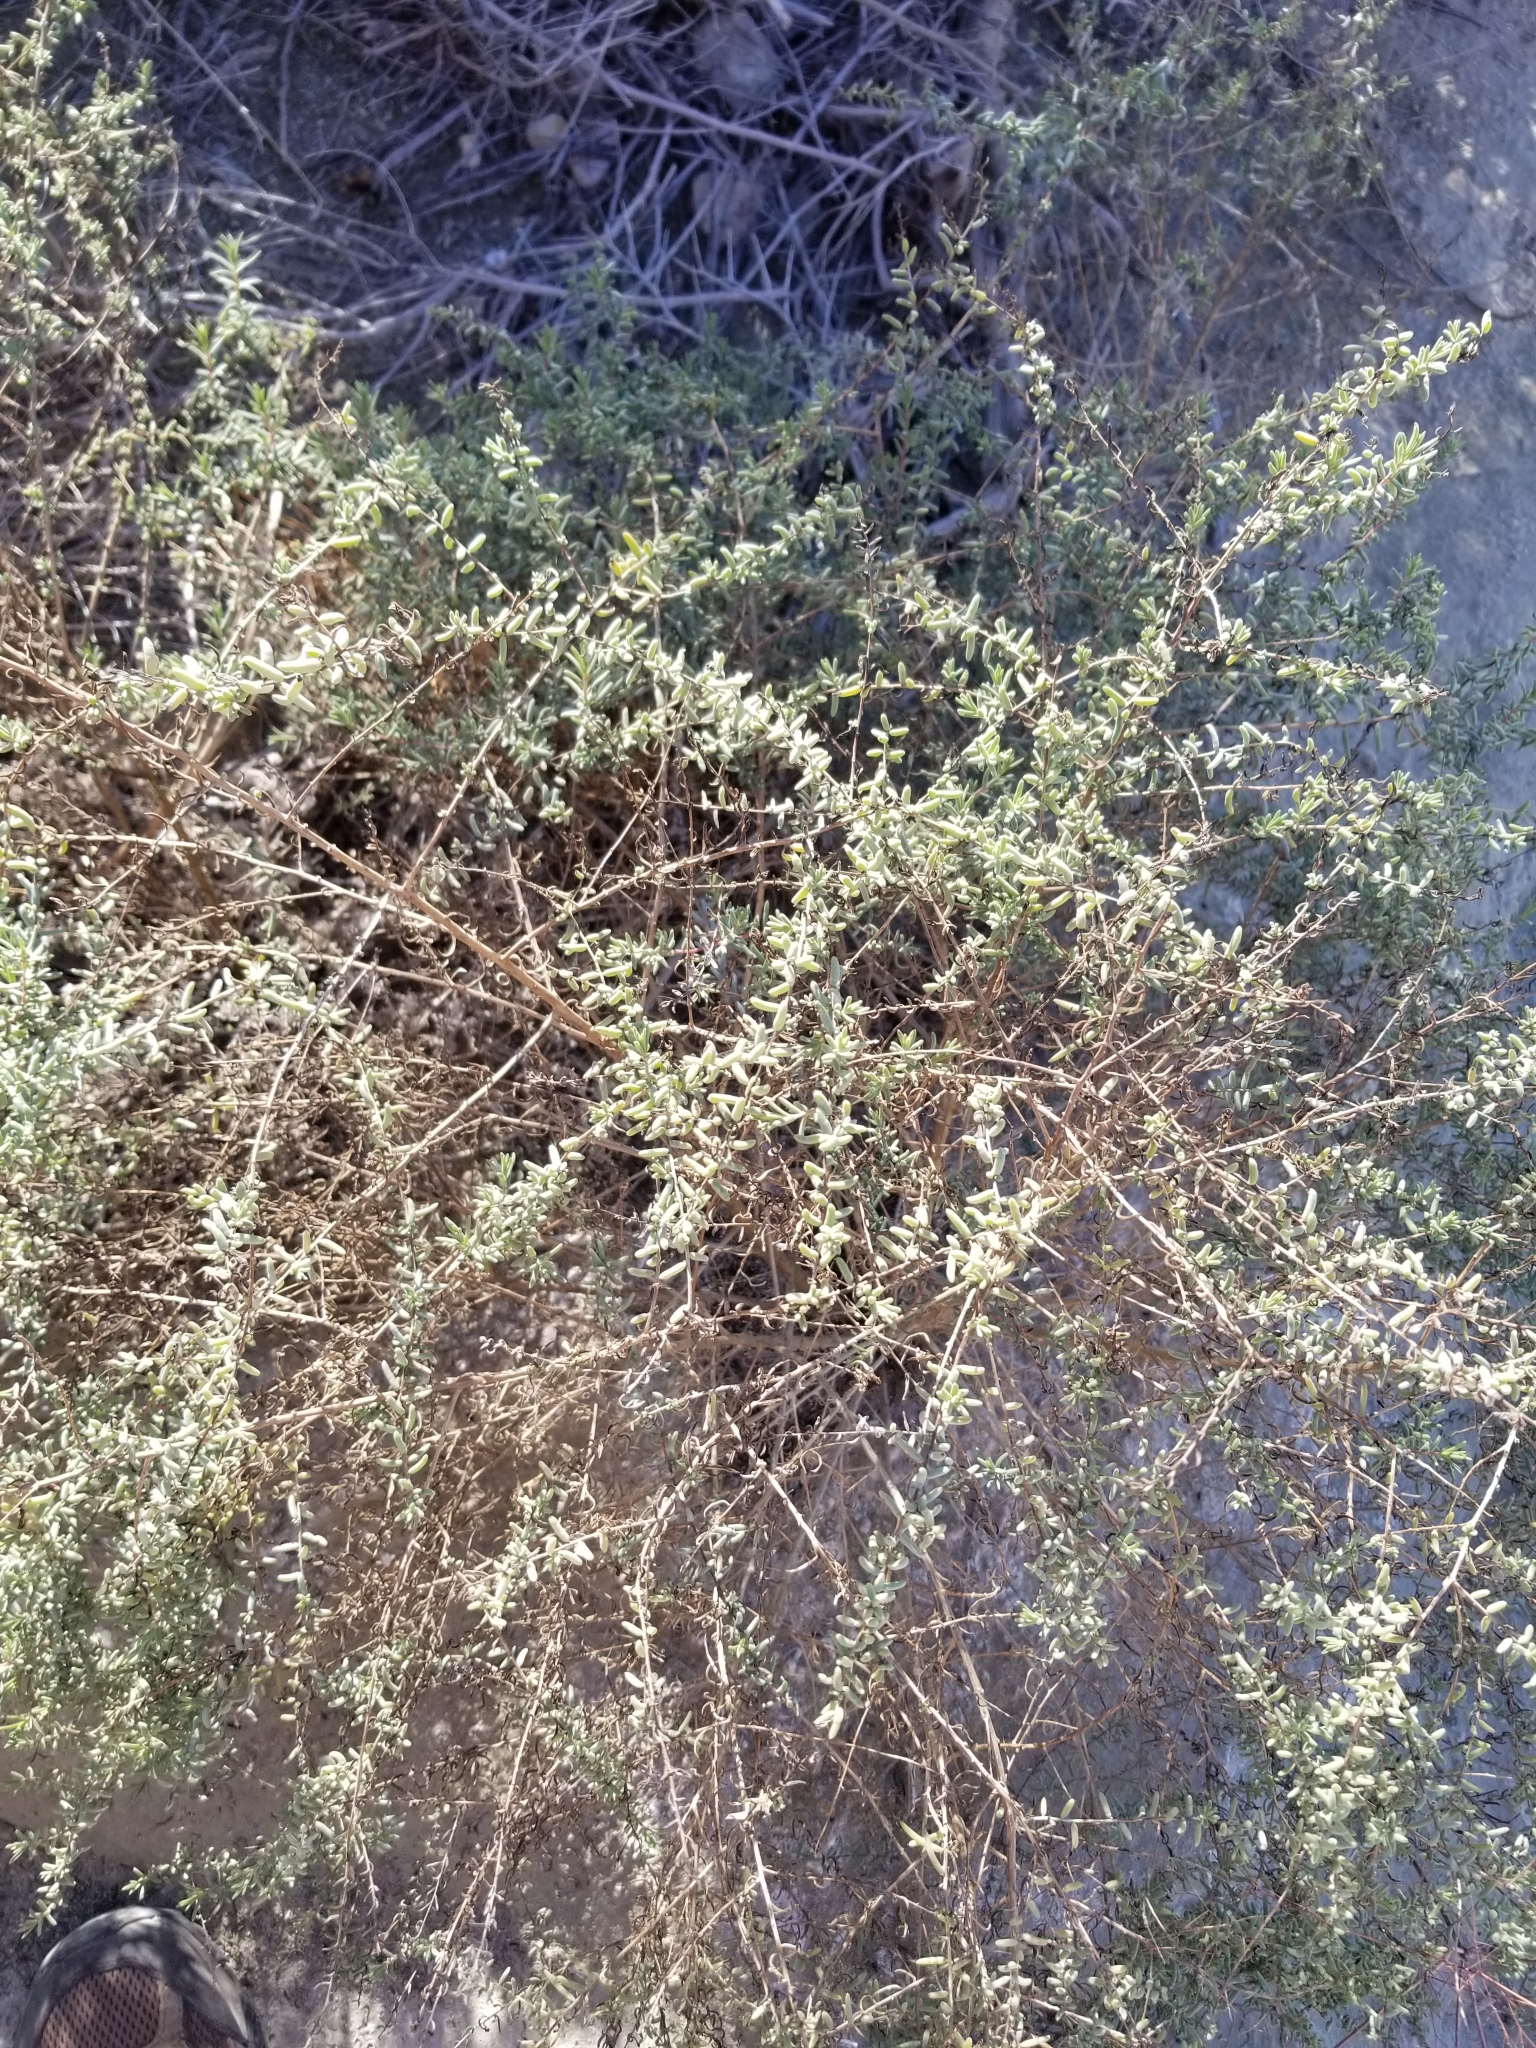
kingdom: Plantae
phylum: Tracheophyta
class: Magnoliopsida
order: Caryophyllales
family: Amaranthaceae
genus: Suaeda
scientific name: Suaeda nigra
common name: Bush seepweed
